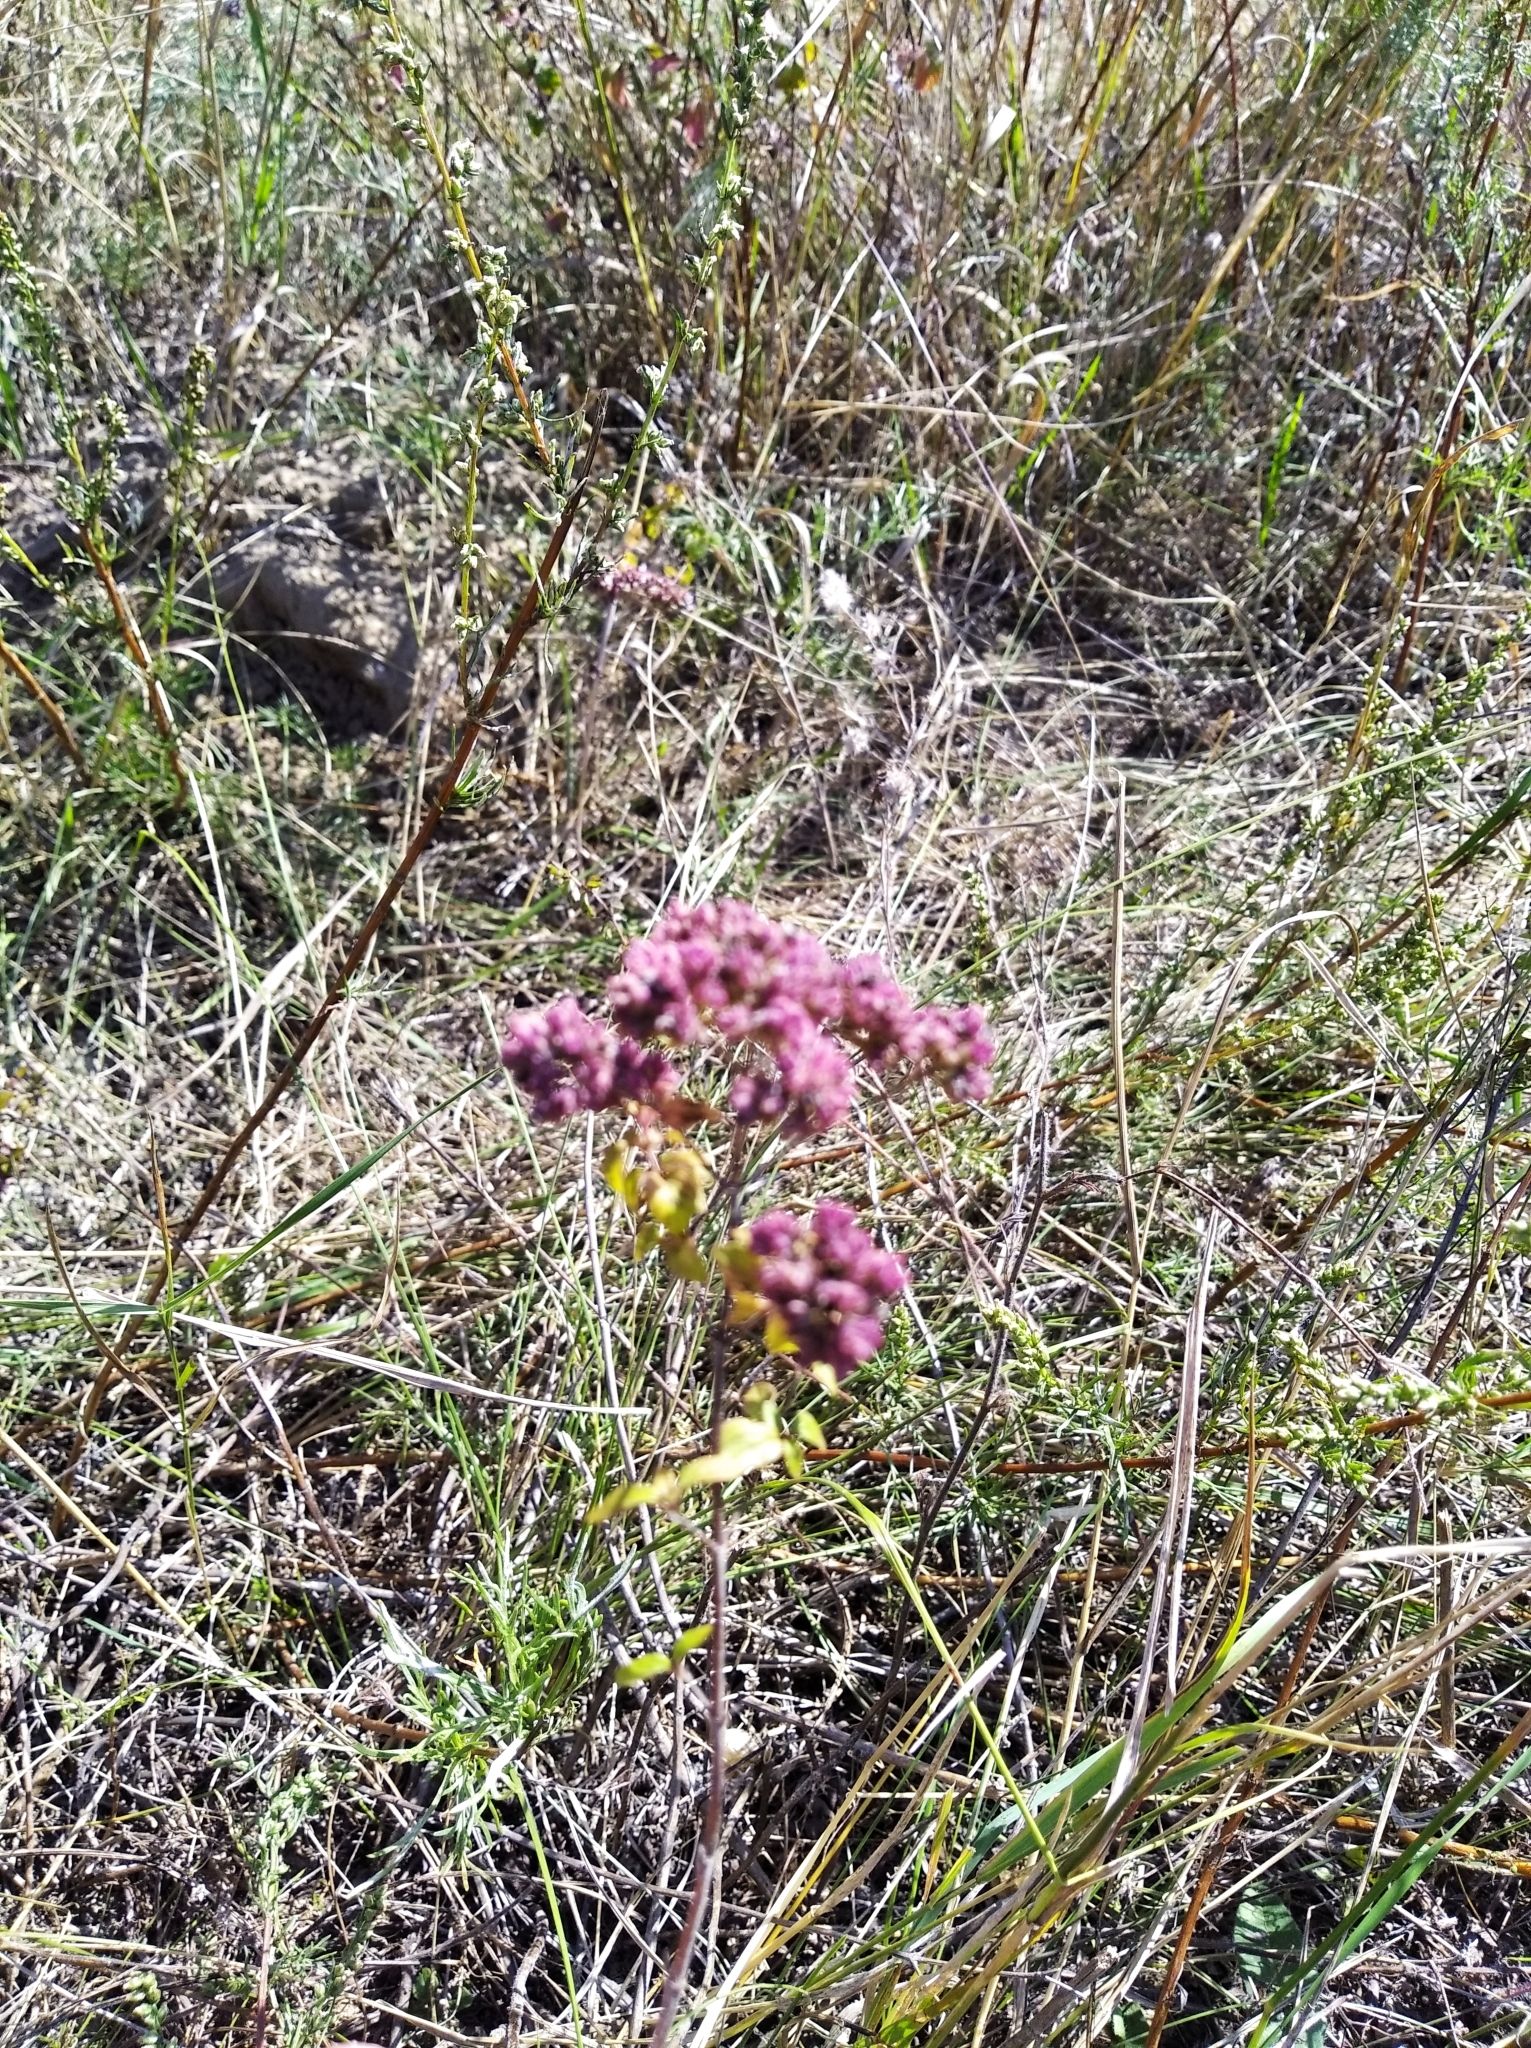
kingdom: Plantae
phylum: Tracheophyta
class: Magnoliopsida
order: Lamiales
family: Lamiaceae
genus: Origanum
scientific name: Origanum vulgare
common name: Wild marjoram
